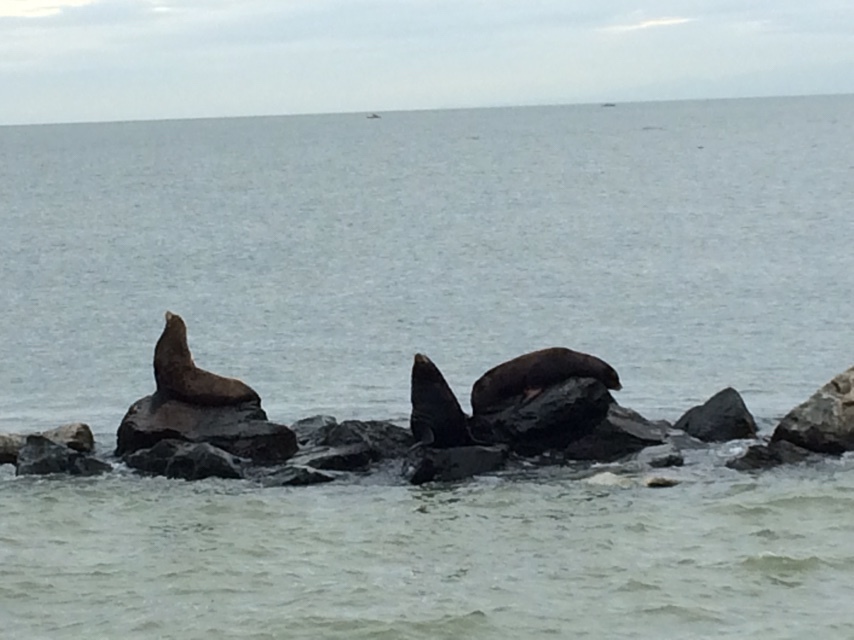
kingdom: Animalia
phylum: Chordata
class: Mammalia
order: Carnivora
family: Otariidae
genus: Zalophus
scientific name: Zalophus californianus
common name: California sea lion
